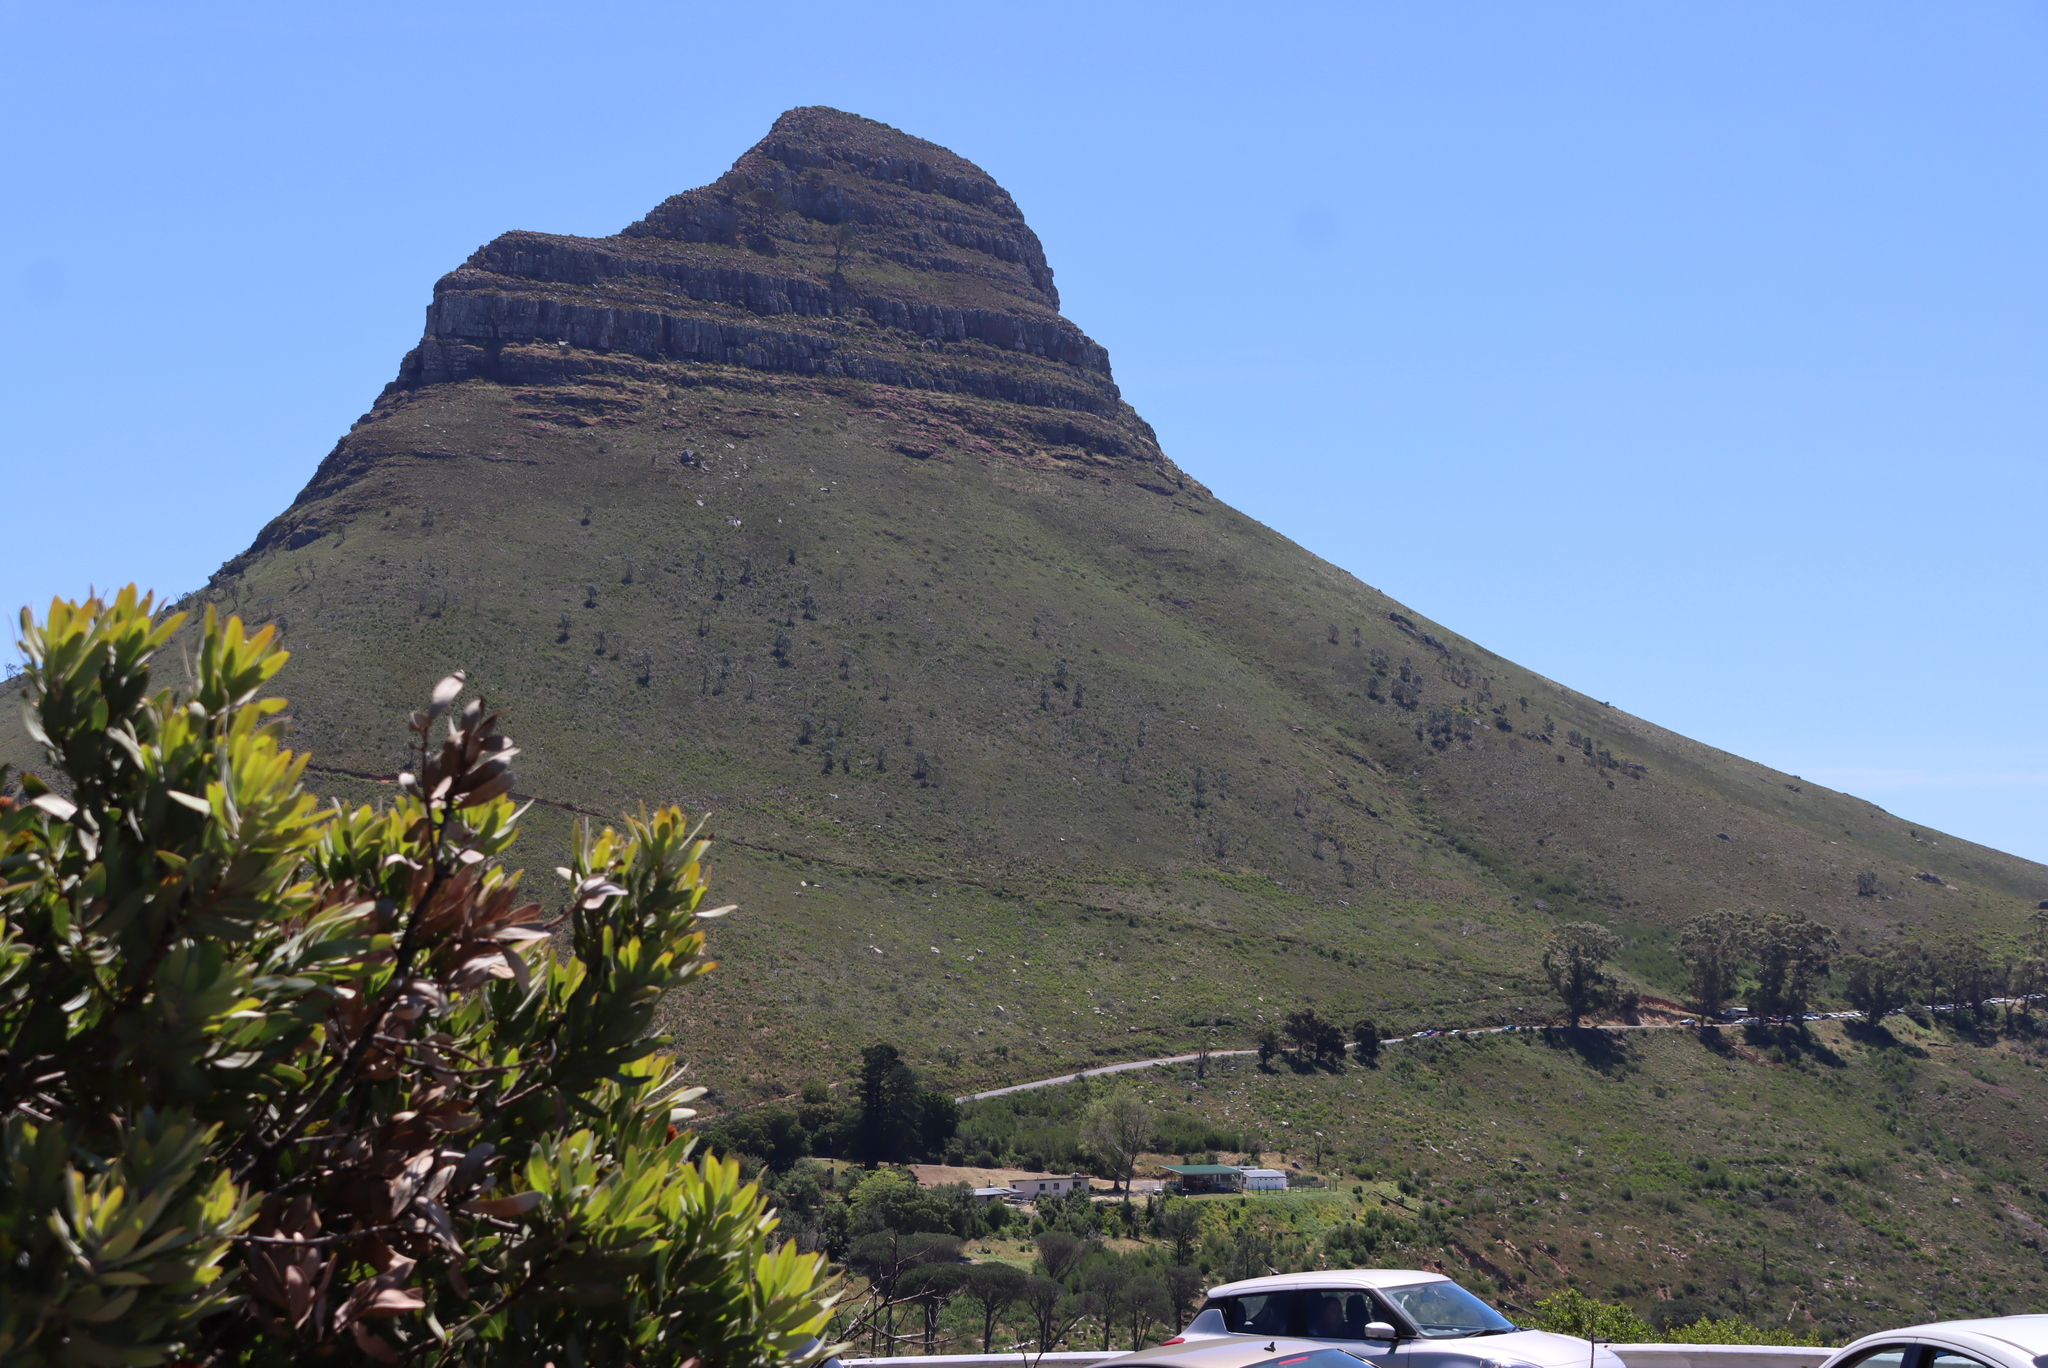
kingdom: Plantae
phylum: Tracheophyta
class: Magnoliopsida
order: Proteales
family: Proteaceae
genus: Leucadendron
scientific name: Leucadendron argenteum
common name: Cape silver tree
